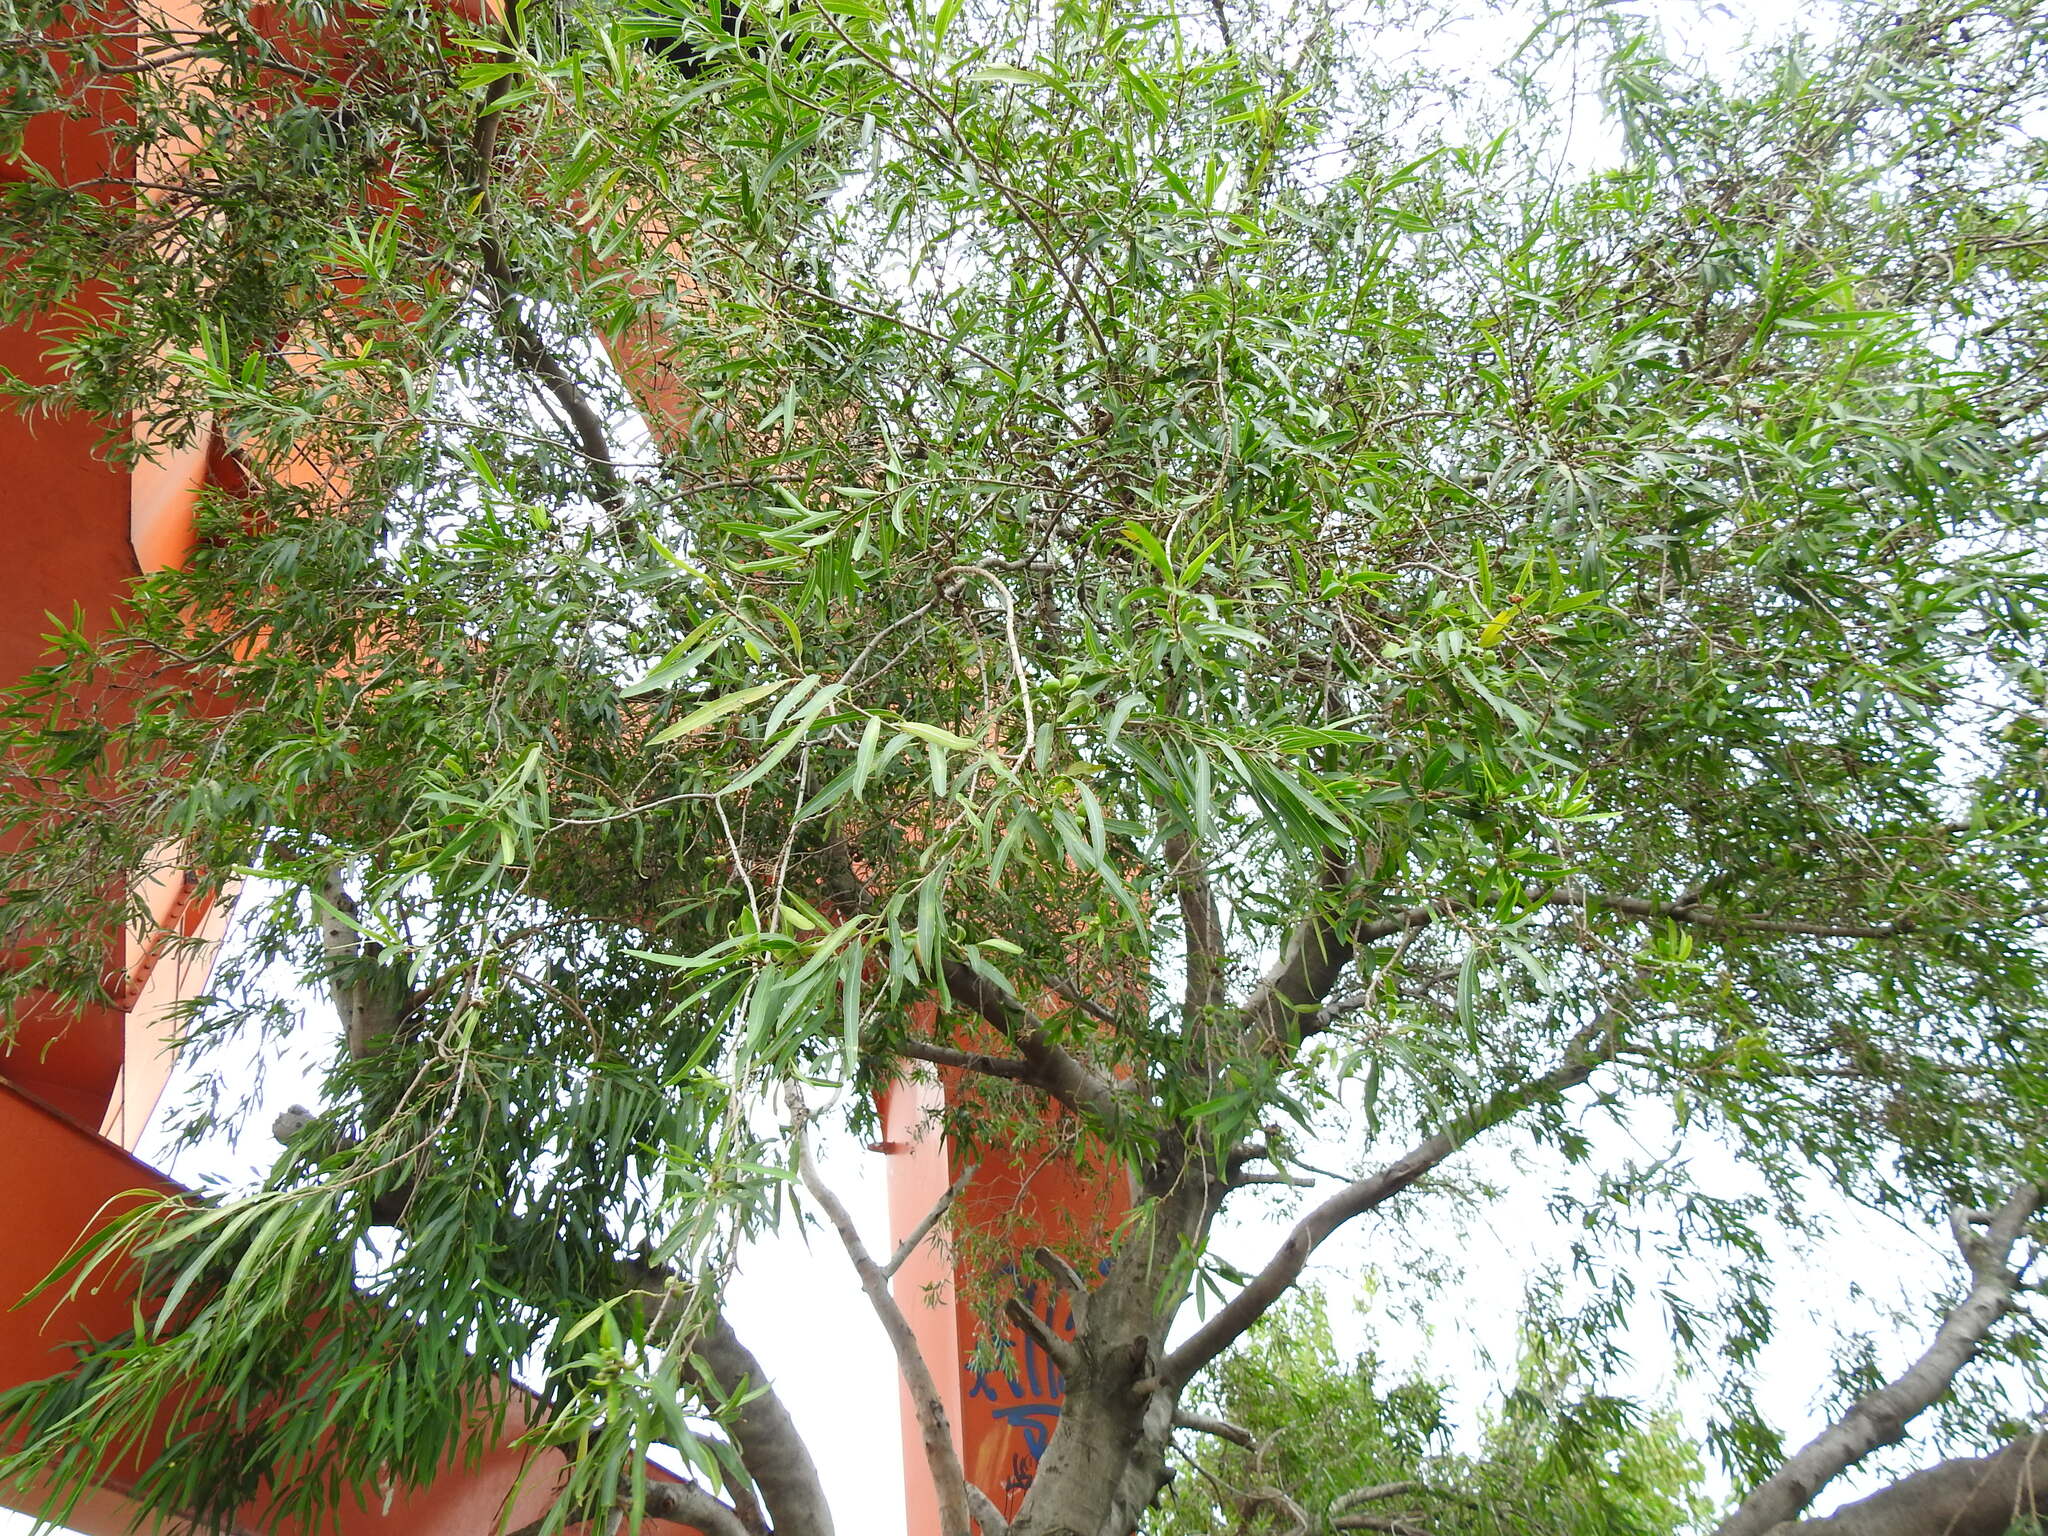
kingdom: Plantae
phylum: Tracheophyta
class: Magnoliopsida
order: Malpighiales
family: Euphorbiaceae
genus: Sapium
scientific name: Sapium haematospermum
